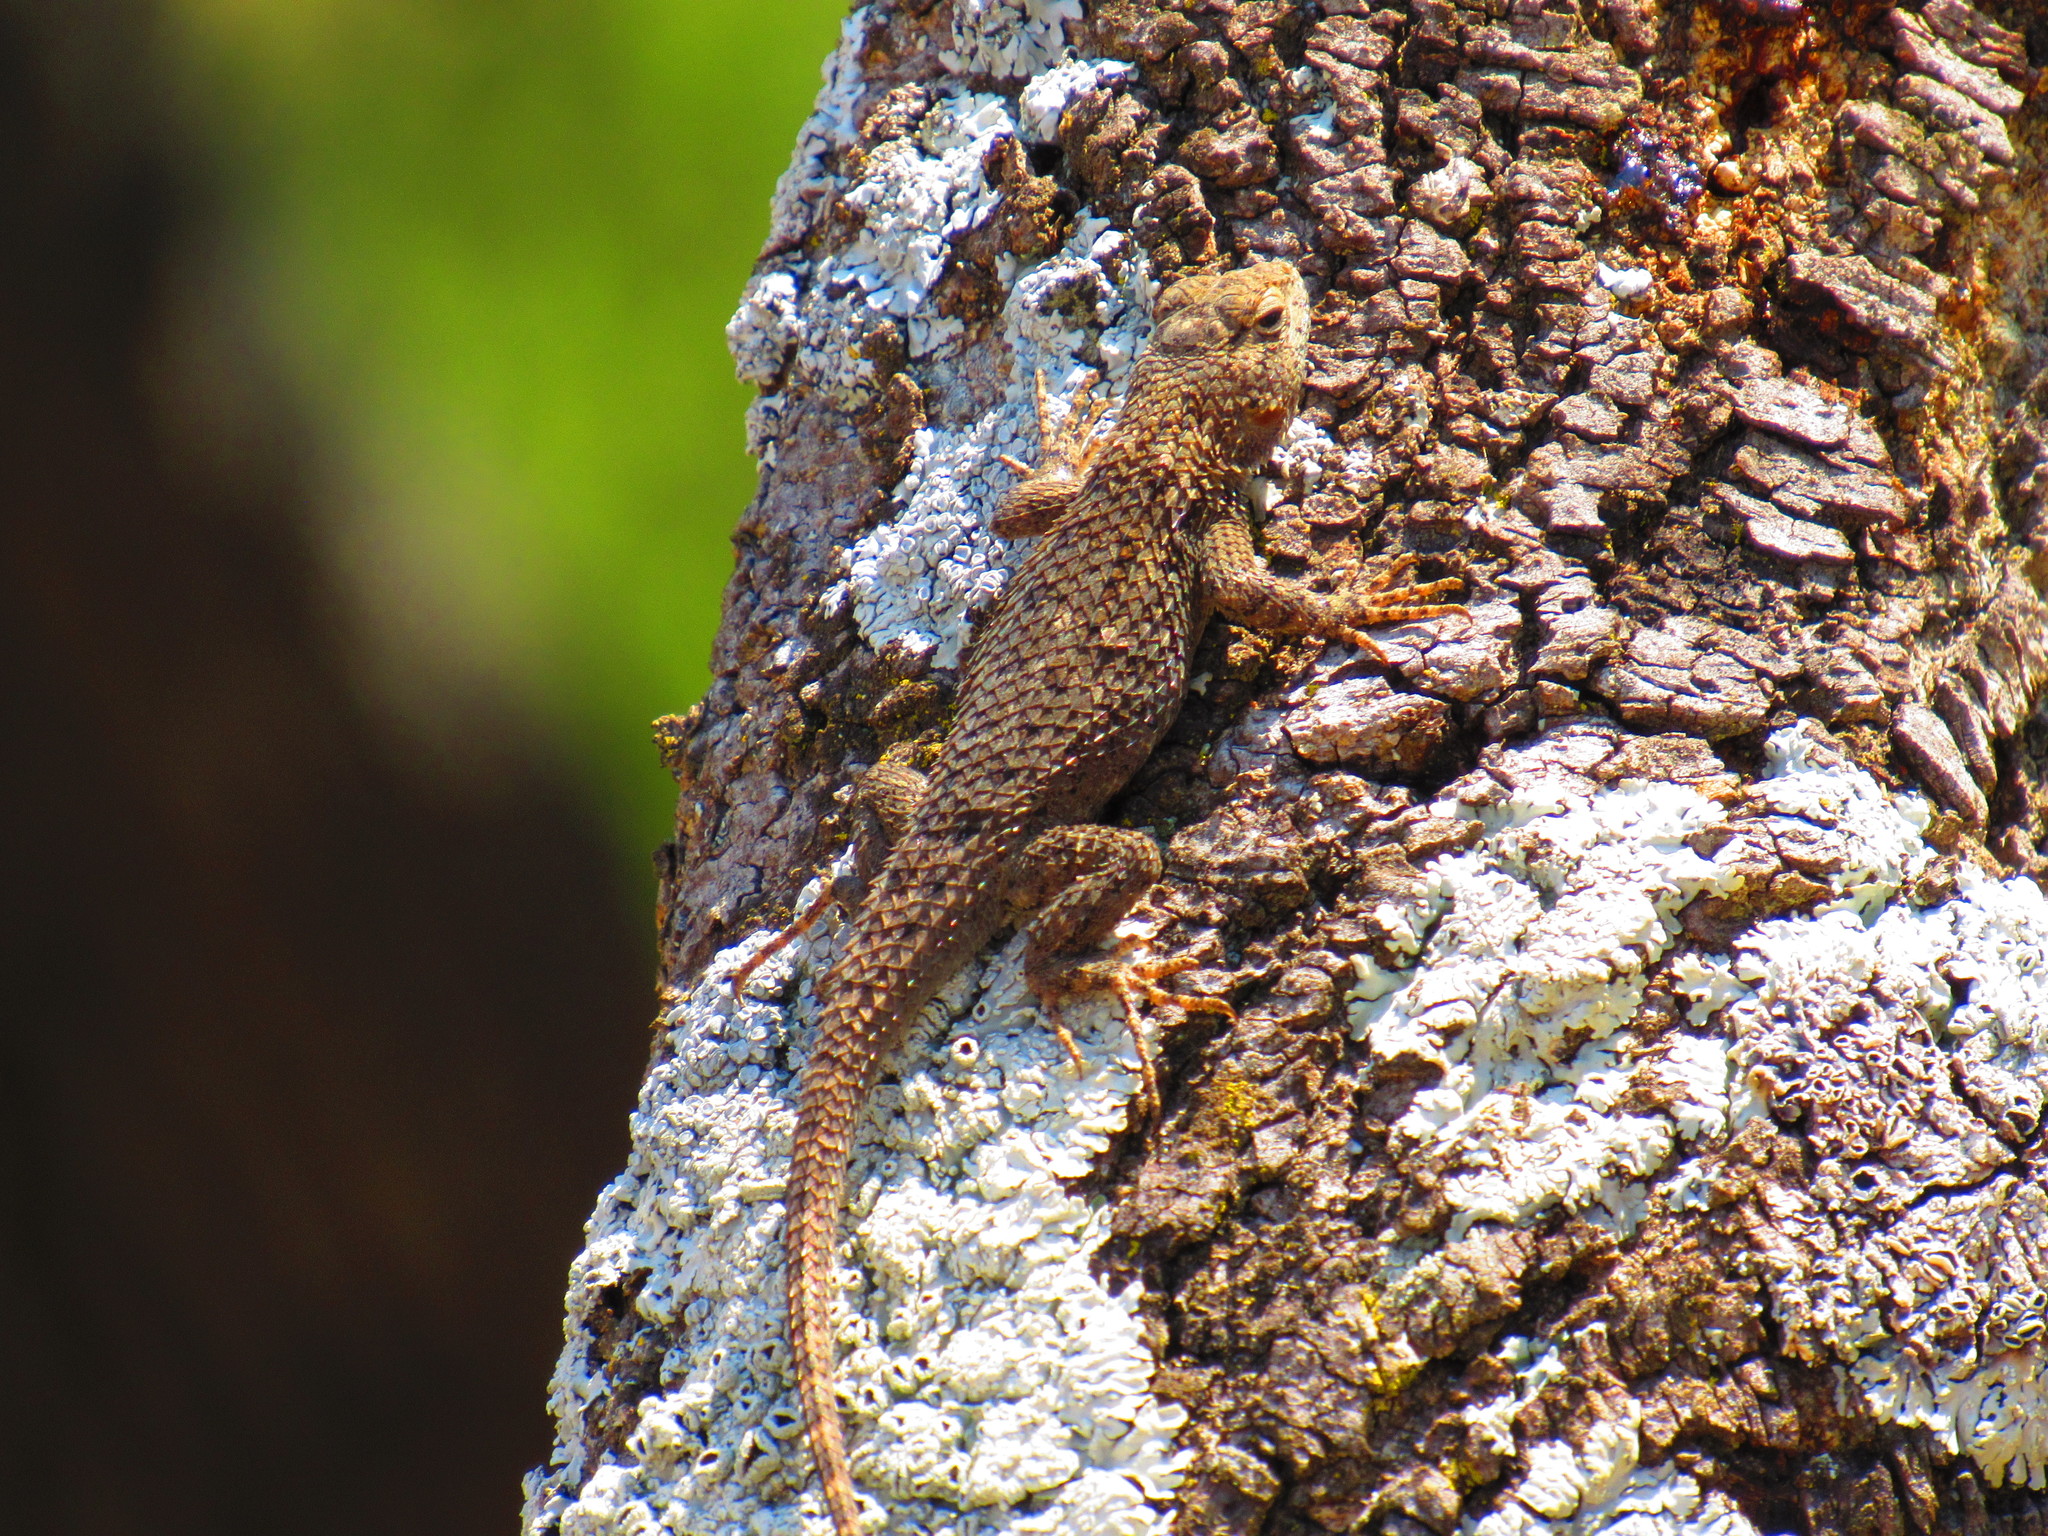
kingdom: Animalia
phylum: Chordata
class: Squamata
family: Phrynosomatidae
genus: Sceloporus
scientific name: Sceloporus spinosus
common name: Blue-spotted spiny lizard [caeruleopunctatus]
